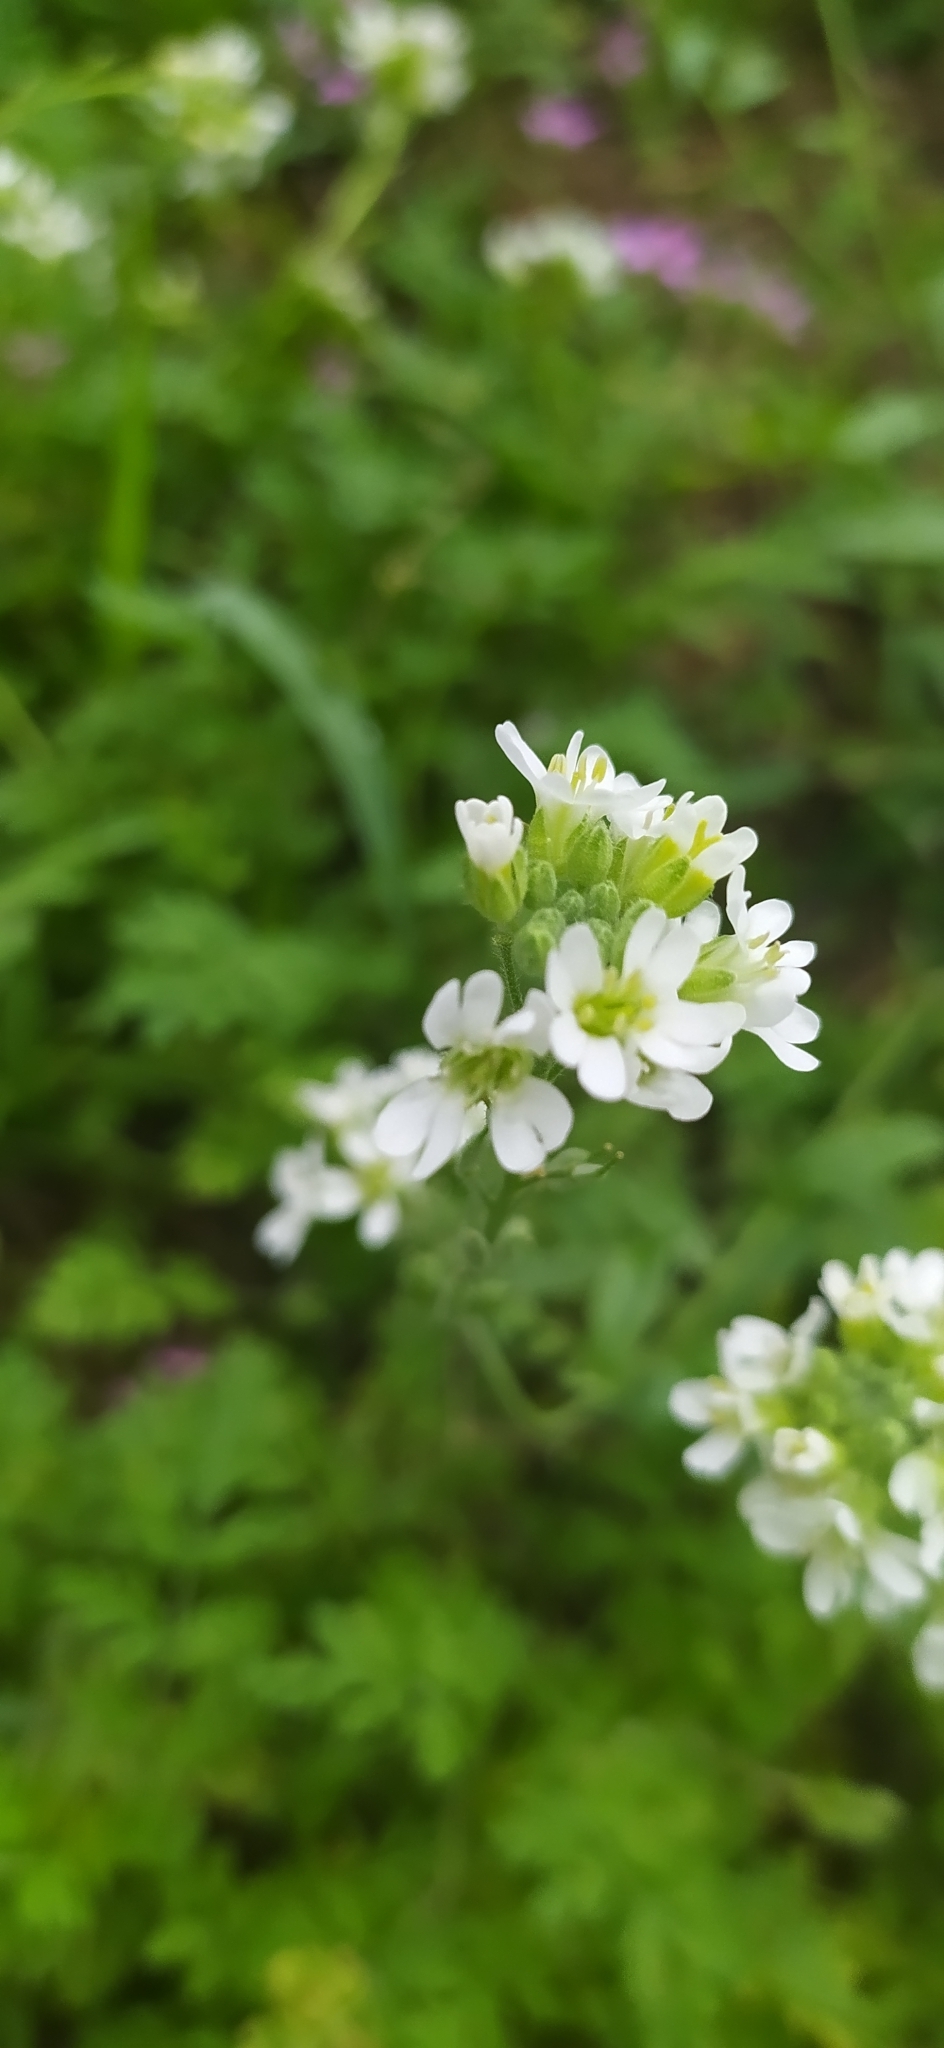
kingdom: Plantae
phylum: Tracheophyta
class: Magnoliopsida
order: Brassicales
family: Brassicaceae
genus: Berteroa
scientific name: Berteroa incana
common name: Hoary alison
